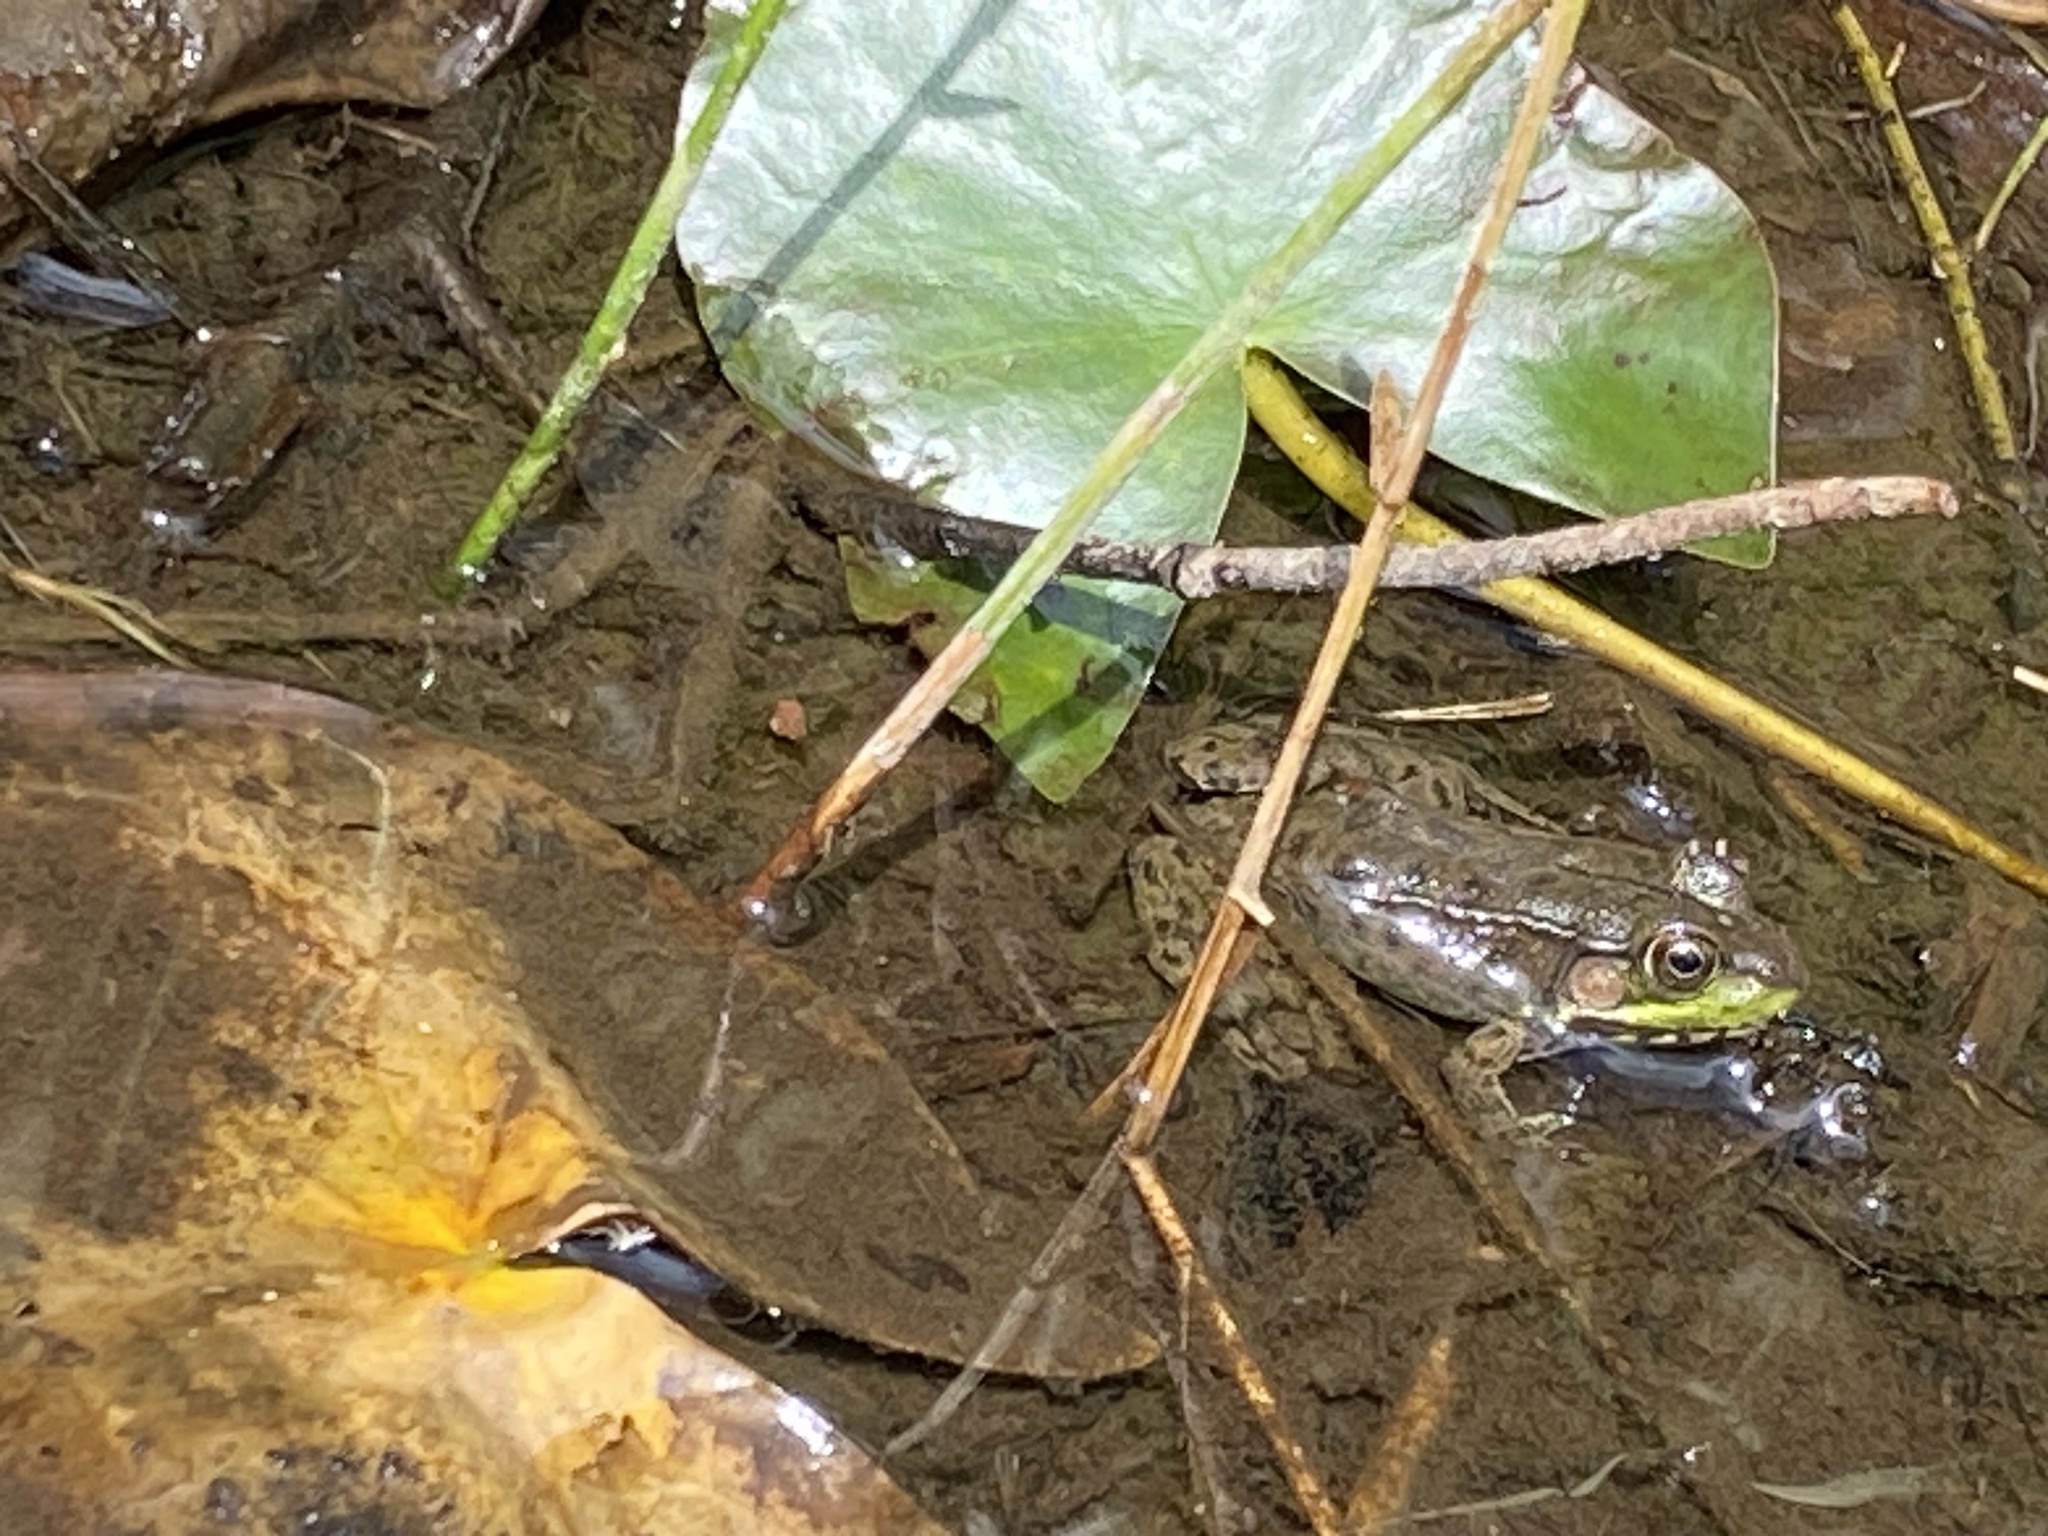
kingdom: Animalia
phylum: Chordata
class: Amphibia
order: Anura
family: Ranidae
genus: Lithobates
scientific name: Lithobates clamitans
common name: Green frog
